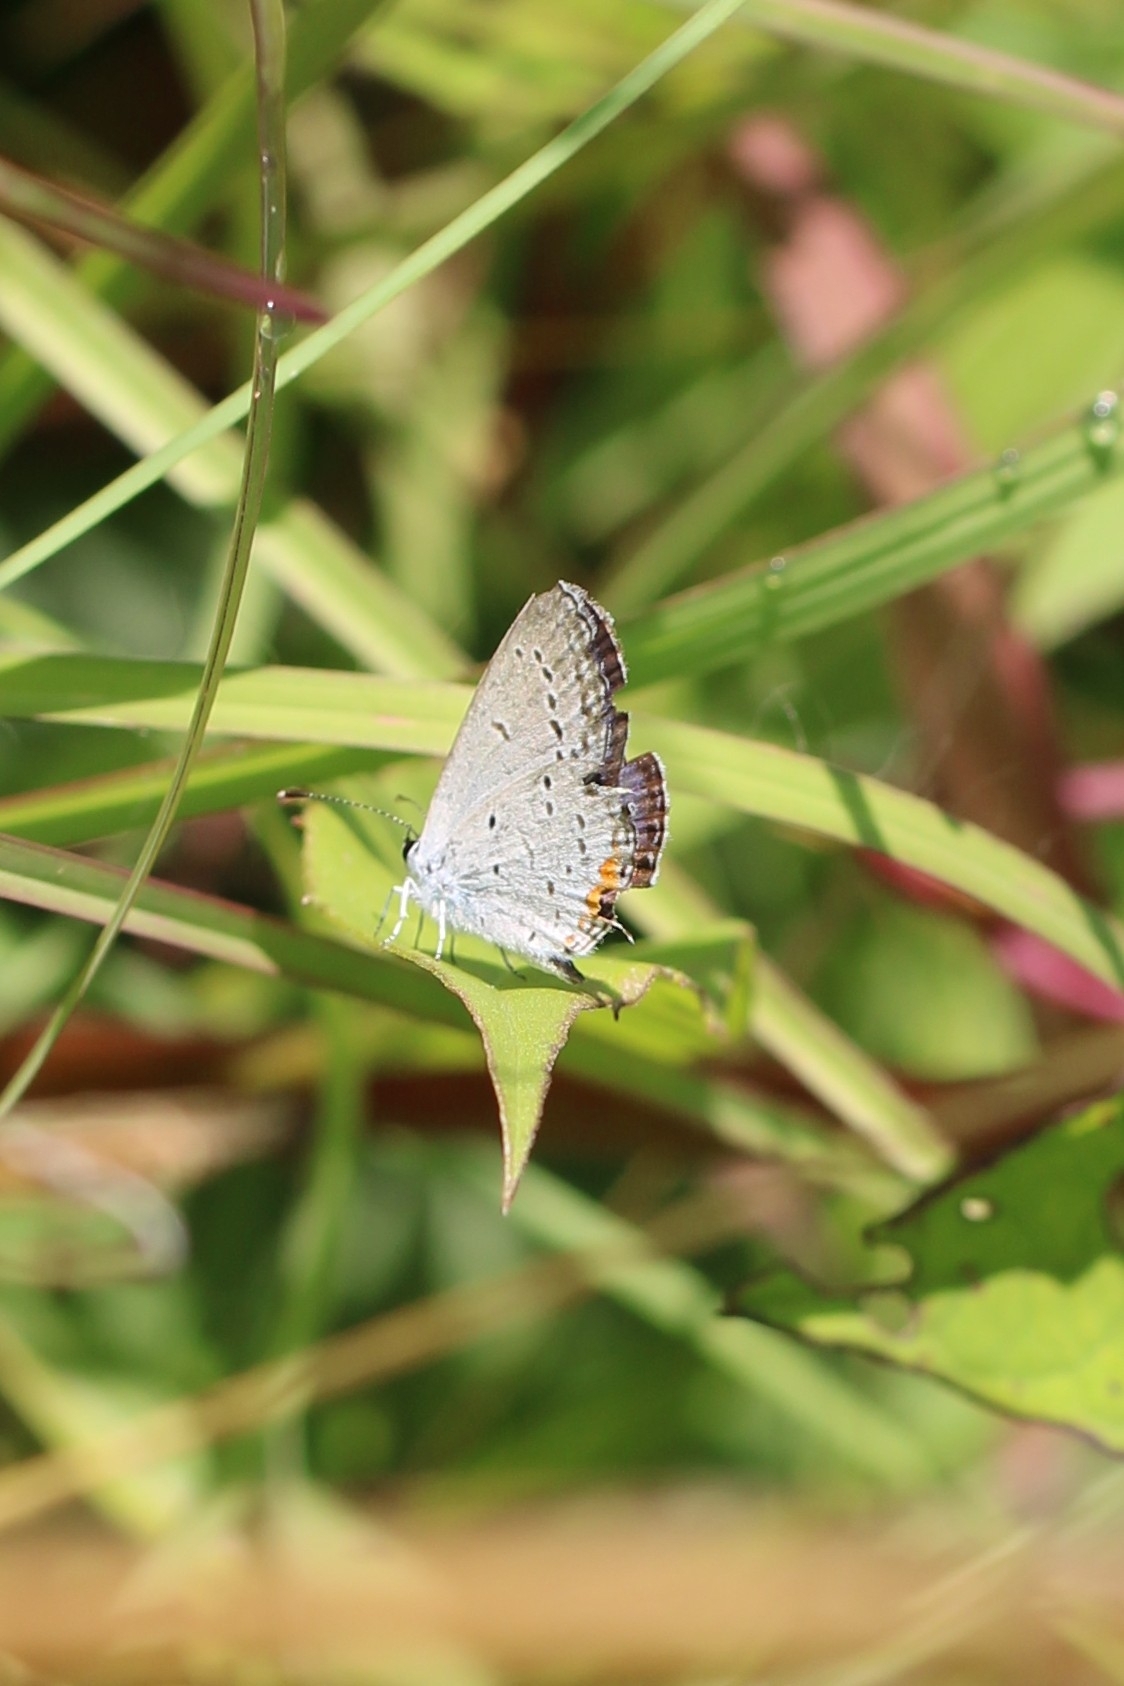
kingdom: Animalia
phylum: Arthropoda
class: Insecta
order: Lepidoptera
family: Lycaenidae
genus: Elkalyce
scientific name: Elkalyce comyntas
